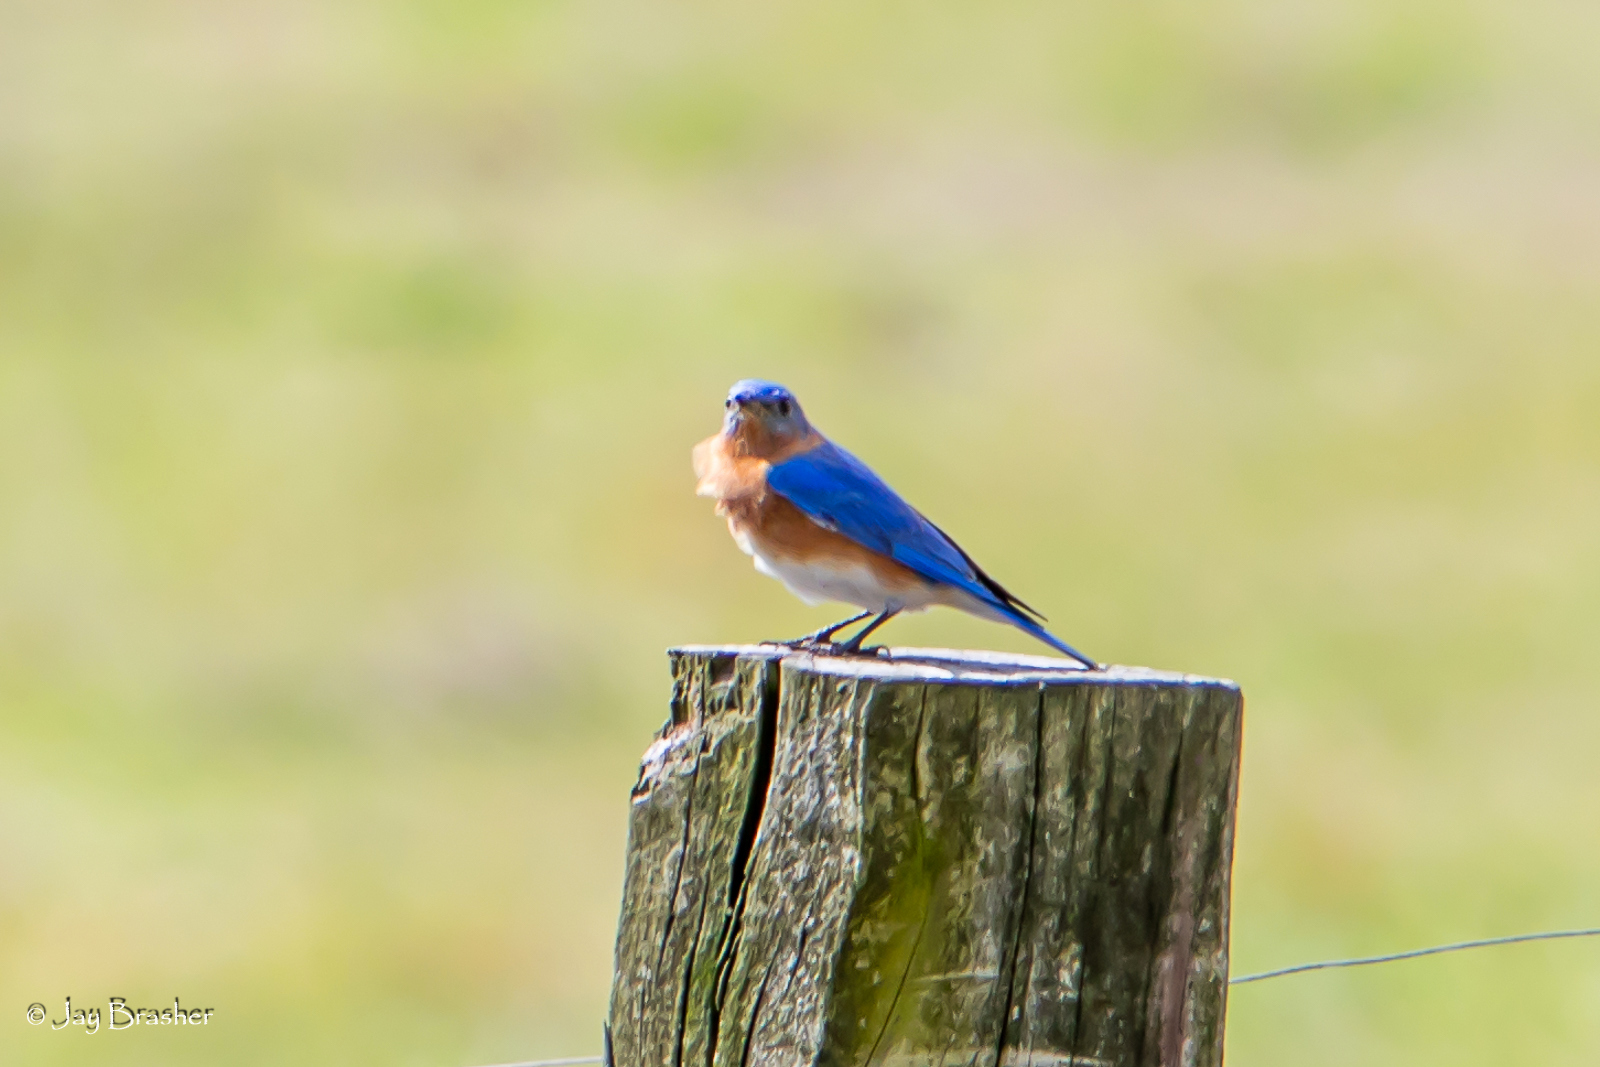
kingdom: Animalia
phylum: Chordata
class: Aves
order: Passeriformes
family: Turdidae
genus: Sialia
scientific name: Sialia sialis
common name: Eastern bluebird
